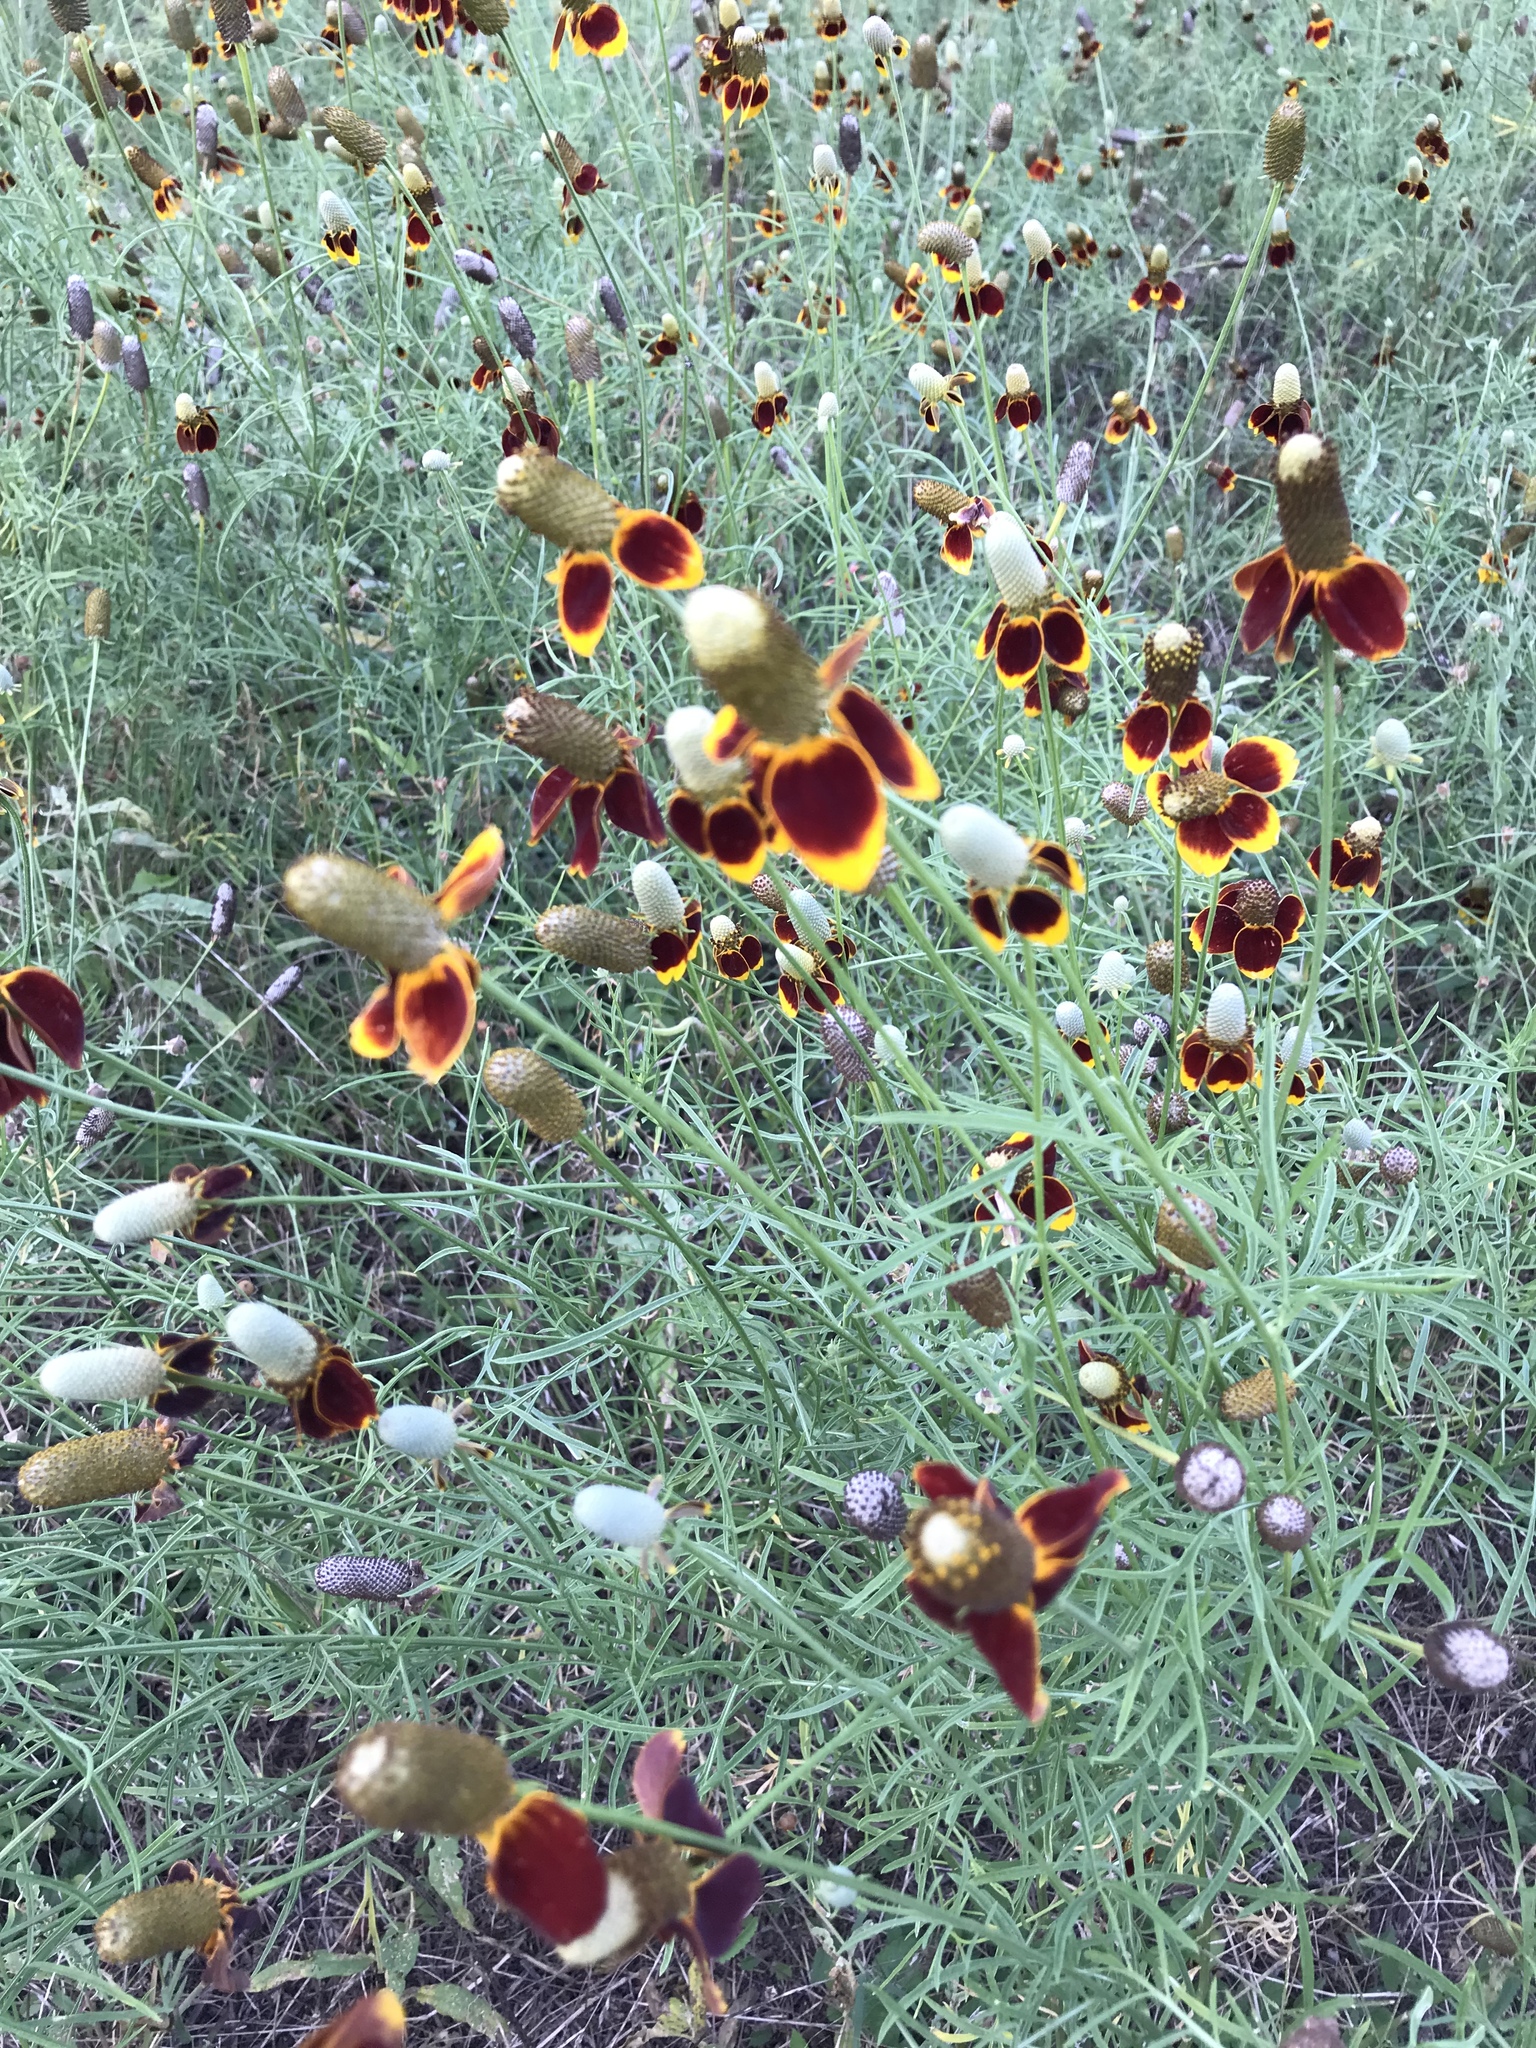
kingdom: Plantae
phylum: Tracheophyta
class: Magnoliopsida
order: Asterales
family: Asteraceae
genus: Ratibida
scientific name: Ratibida columnifera
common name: Prairie coneflower
